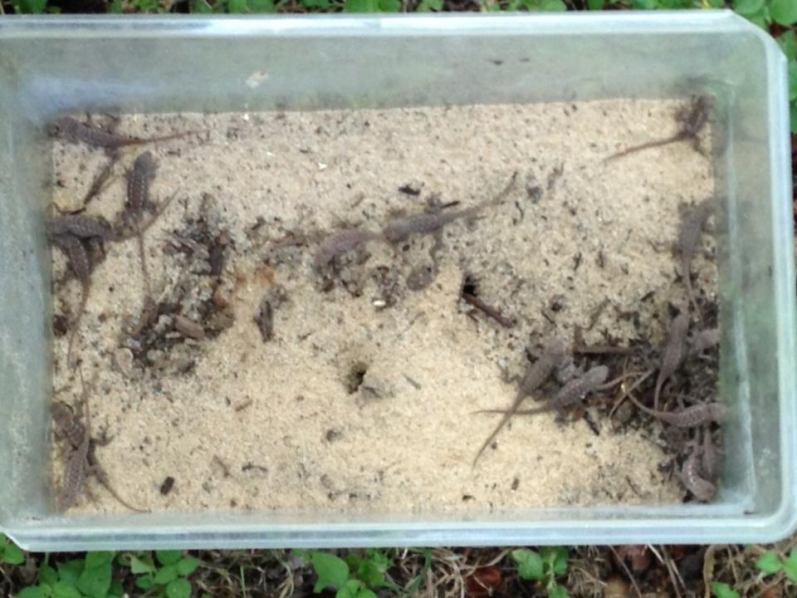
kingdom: Animalia
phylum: Chordata
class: Squamata
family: Phrynosomatidae
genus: Sceloporus
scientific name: Sceloporus olivaceus
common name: Texas spiny lizard
